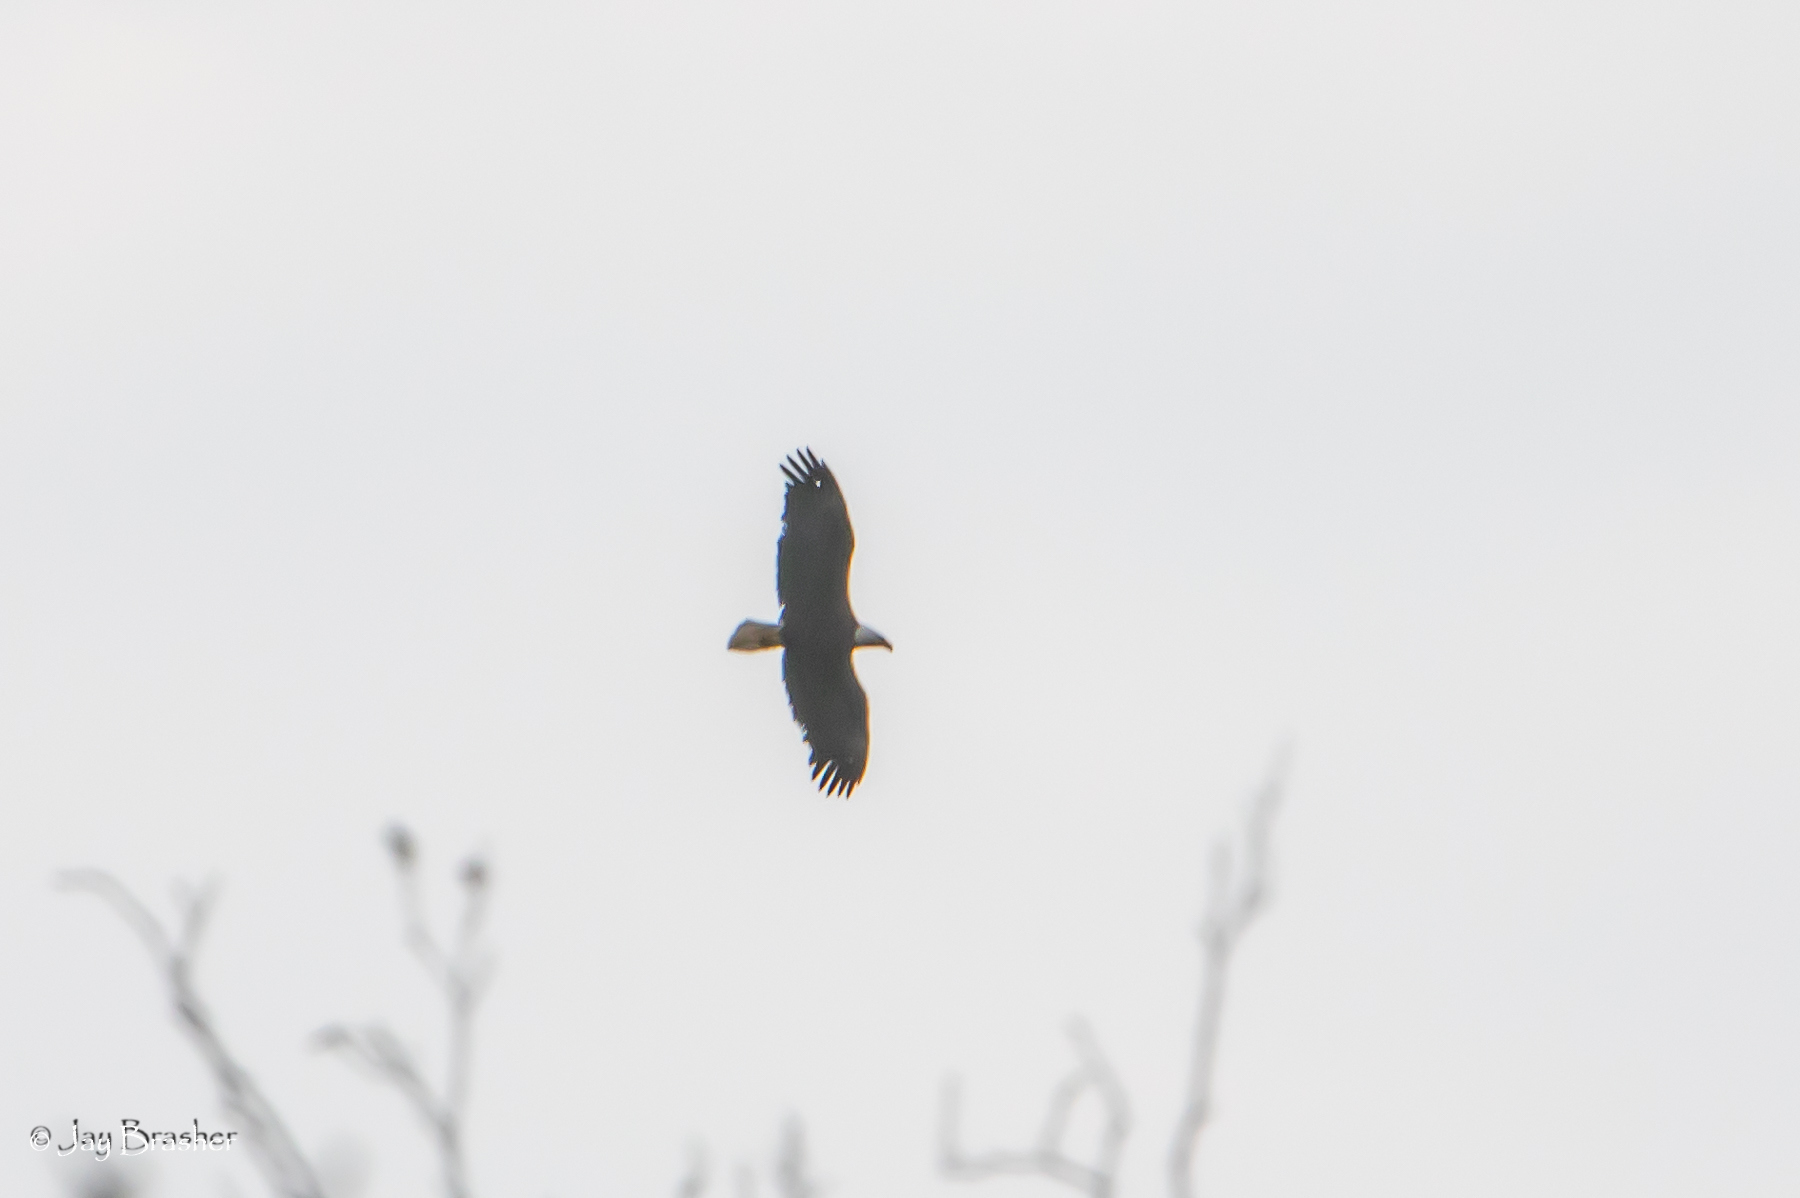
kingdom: Animalia
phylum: Chordata
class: Aves
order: Accipitriformes
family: Accipitridae
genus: Haliaeetus
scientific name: Haliaeetus leucocephalus
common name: Bald eagle
